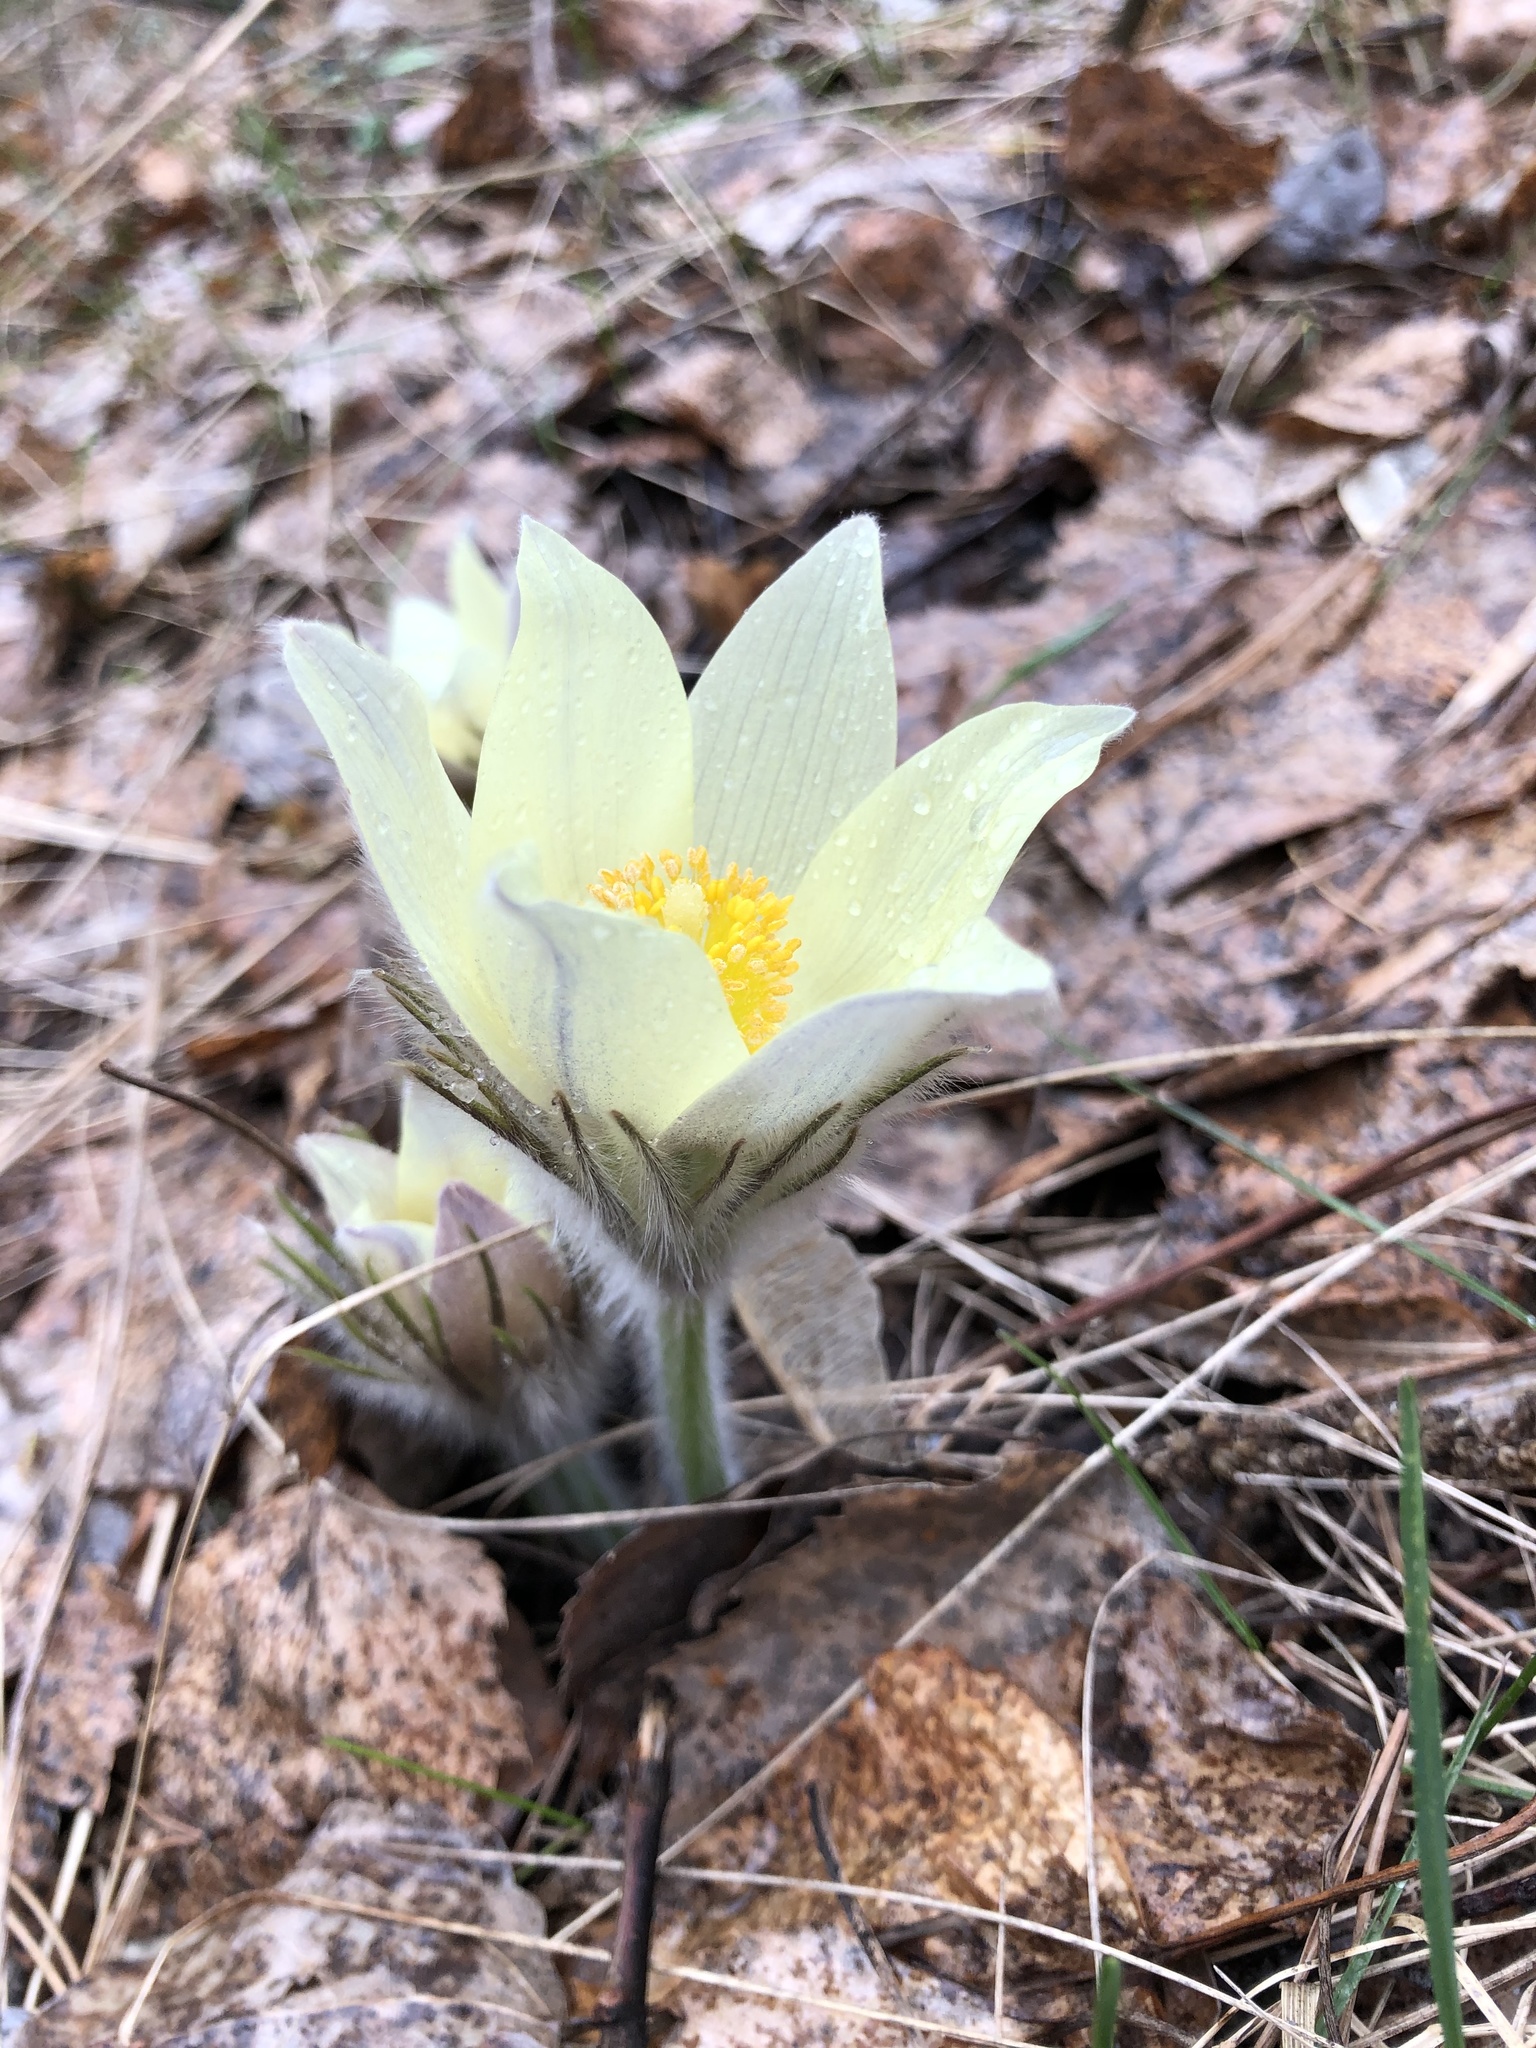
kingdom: Plantae
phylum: Tracheophyta
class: Magnoliopsida
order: Ranunculales
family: Ranunculaceae
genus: Pulsatilla
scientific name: Pulsatilla patens
